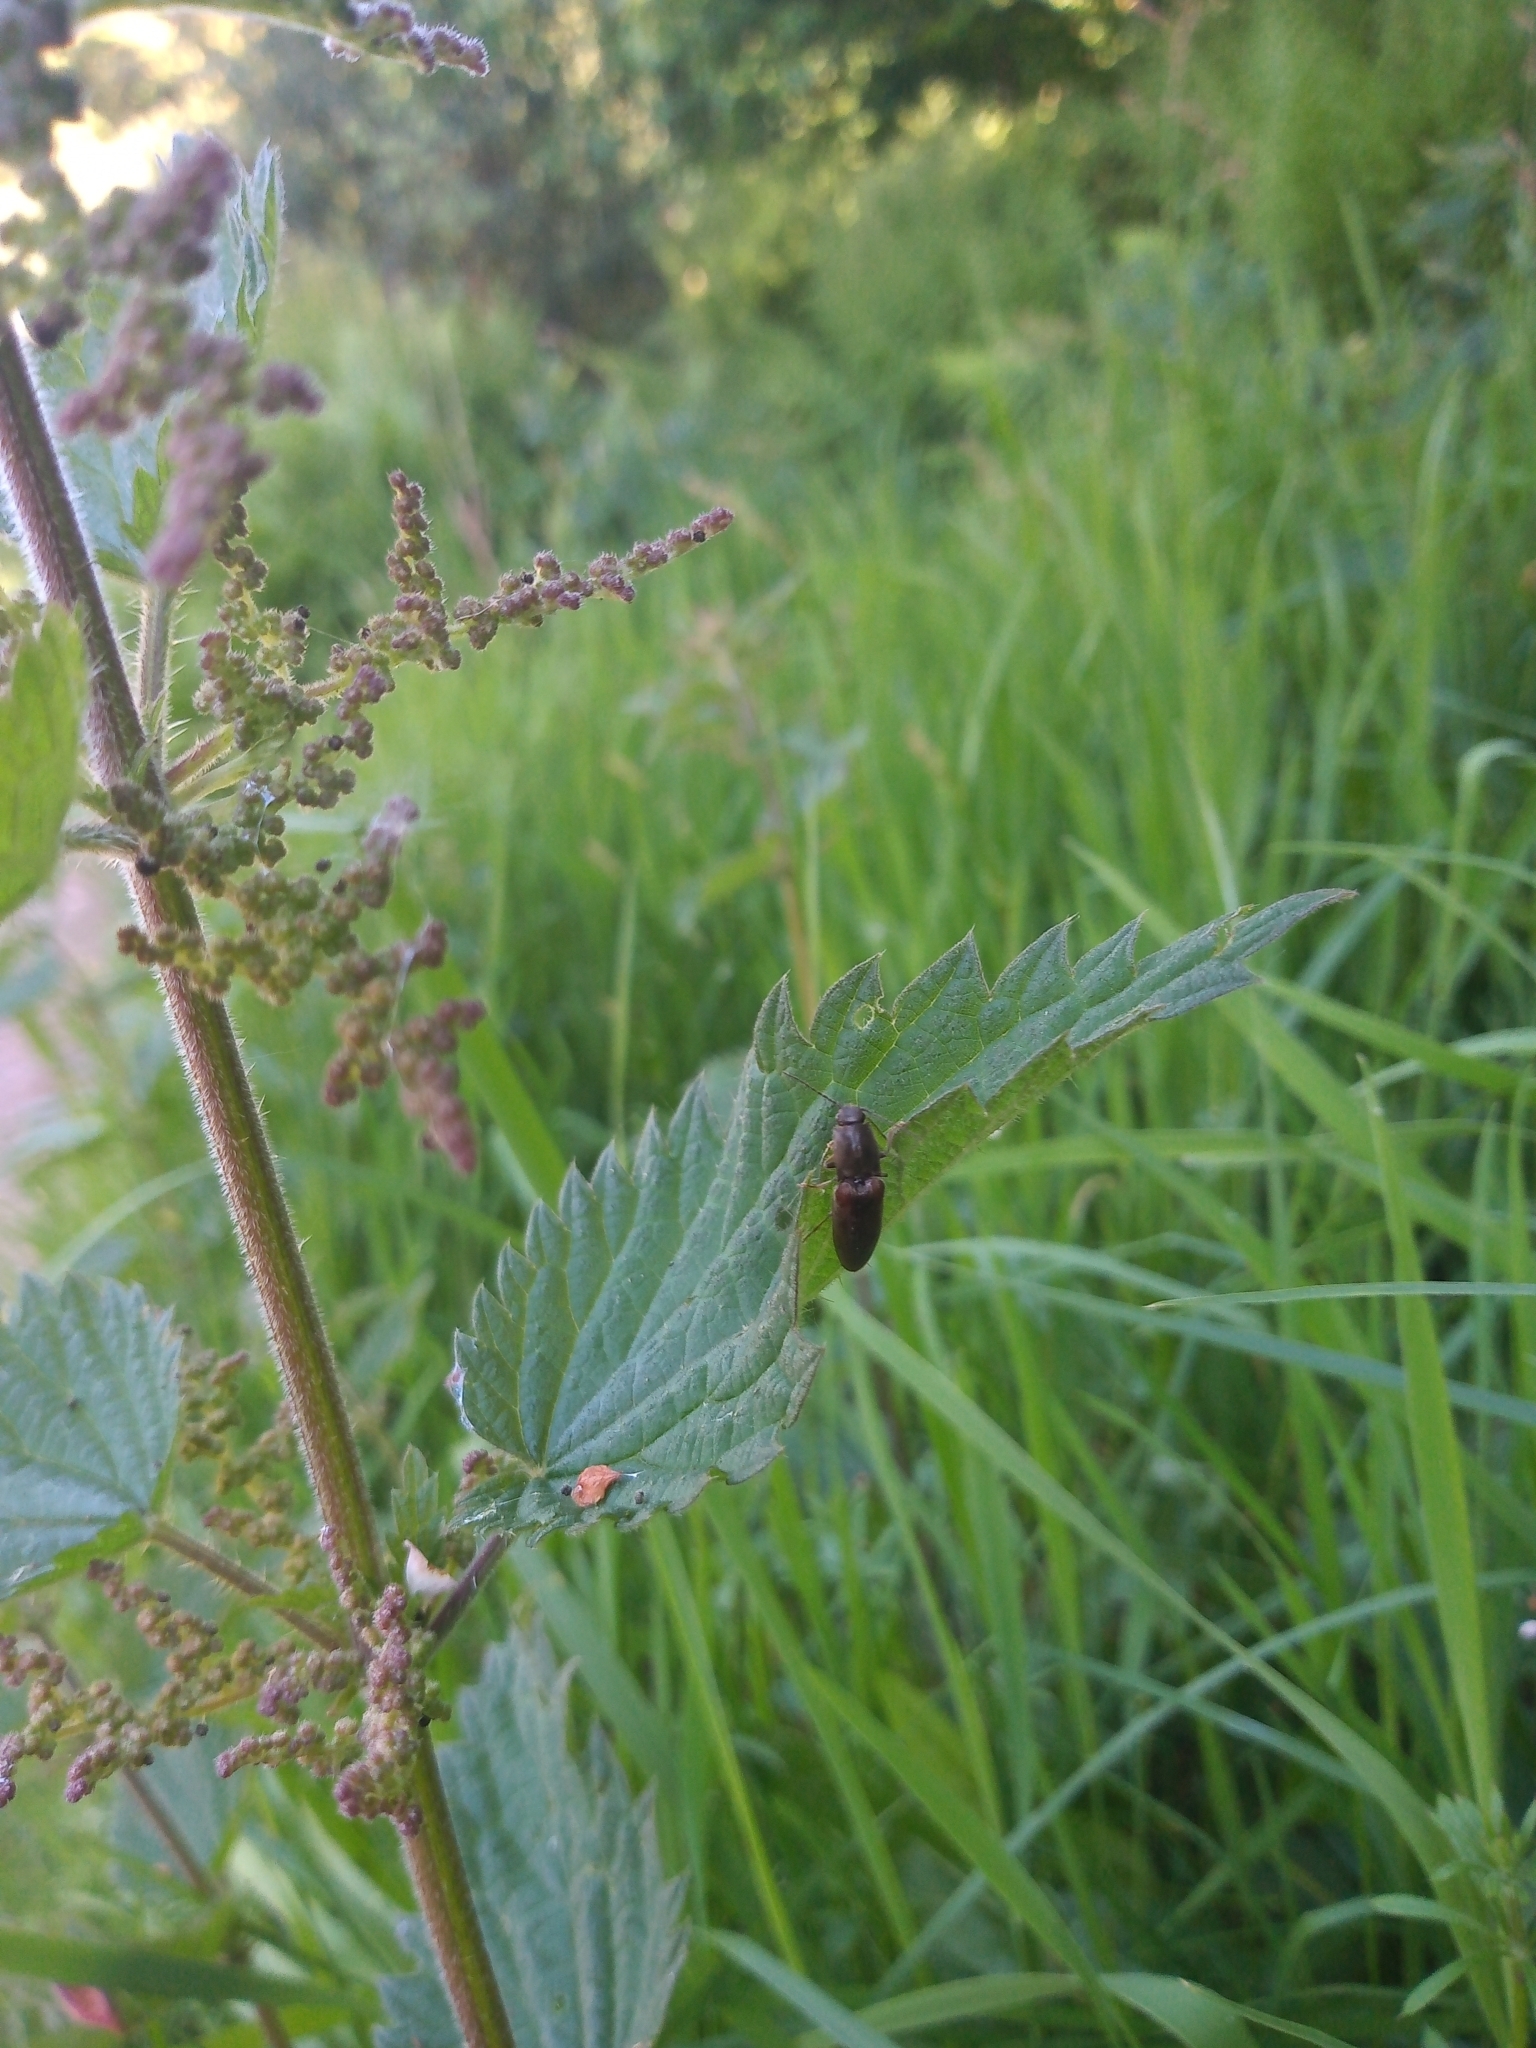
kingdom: Animalia
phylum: Arthropoda
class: Insecta
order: Coleoptera
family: Elateridae
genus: Athous
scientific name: Athous haemorrhoidalis
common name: Red-brown click beetle
